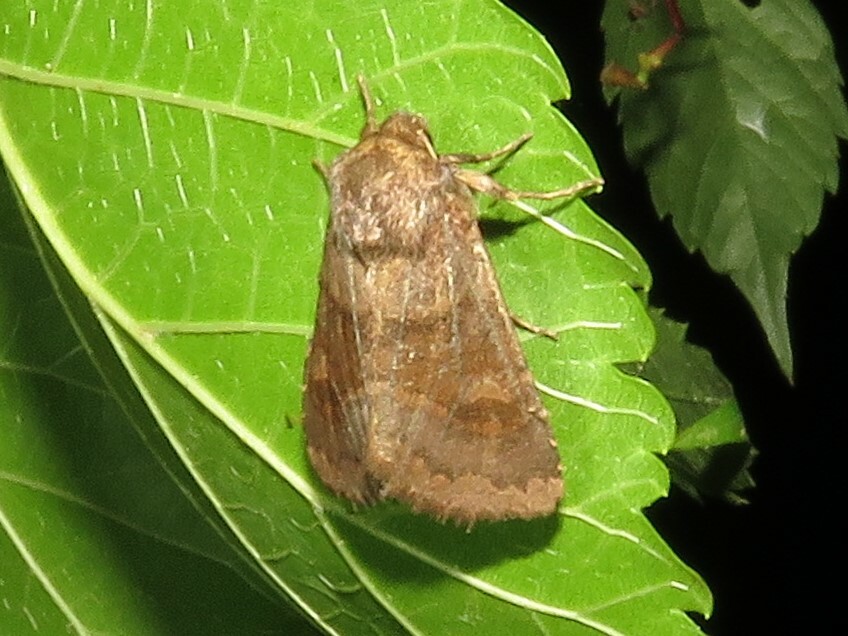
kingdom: Animalia
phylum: Arthropoda
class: Insecta
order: Lepidoptera
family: Noctuidae
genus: Nephelodes
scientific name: Nephelodes minians
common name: Bronzed cutworm
